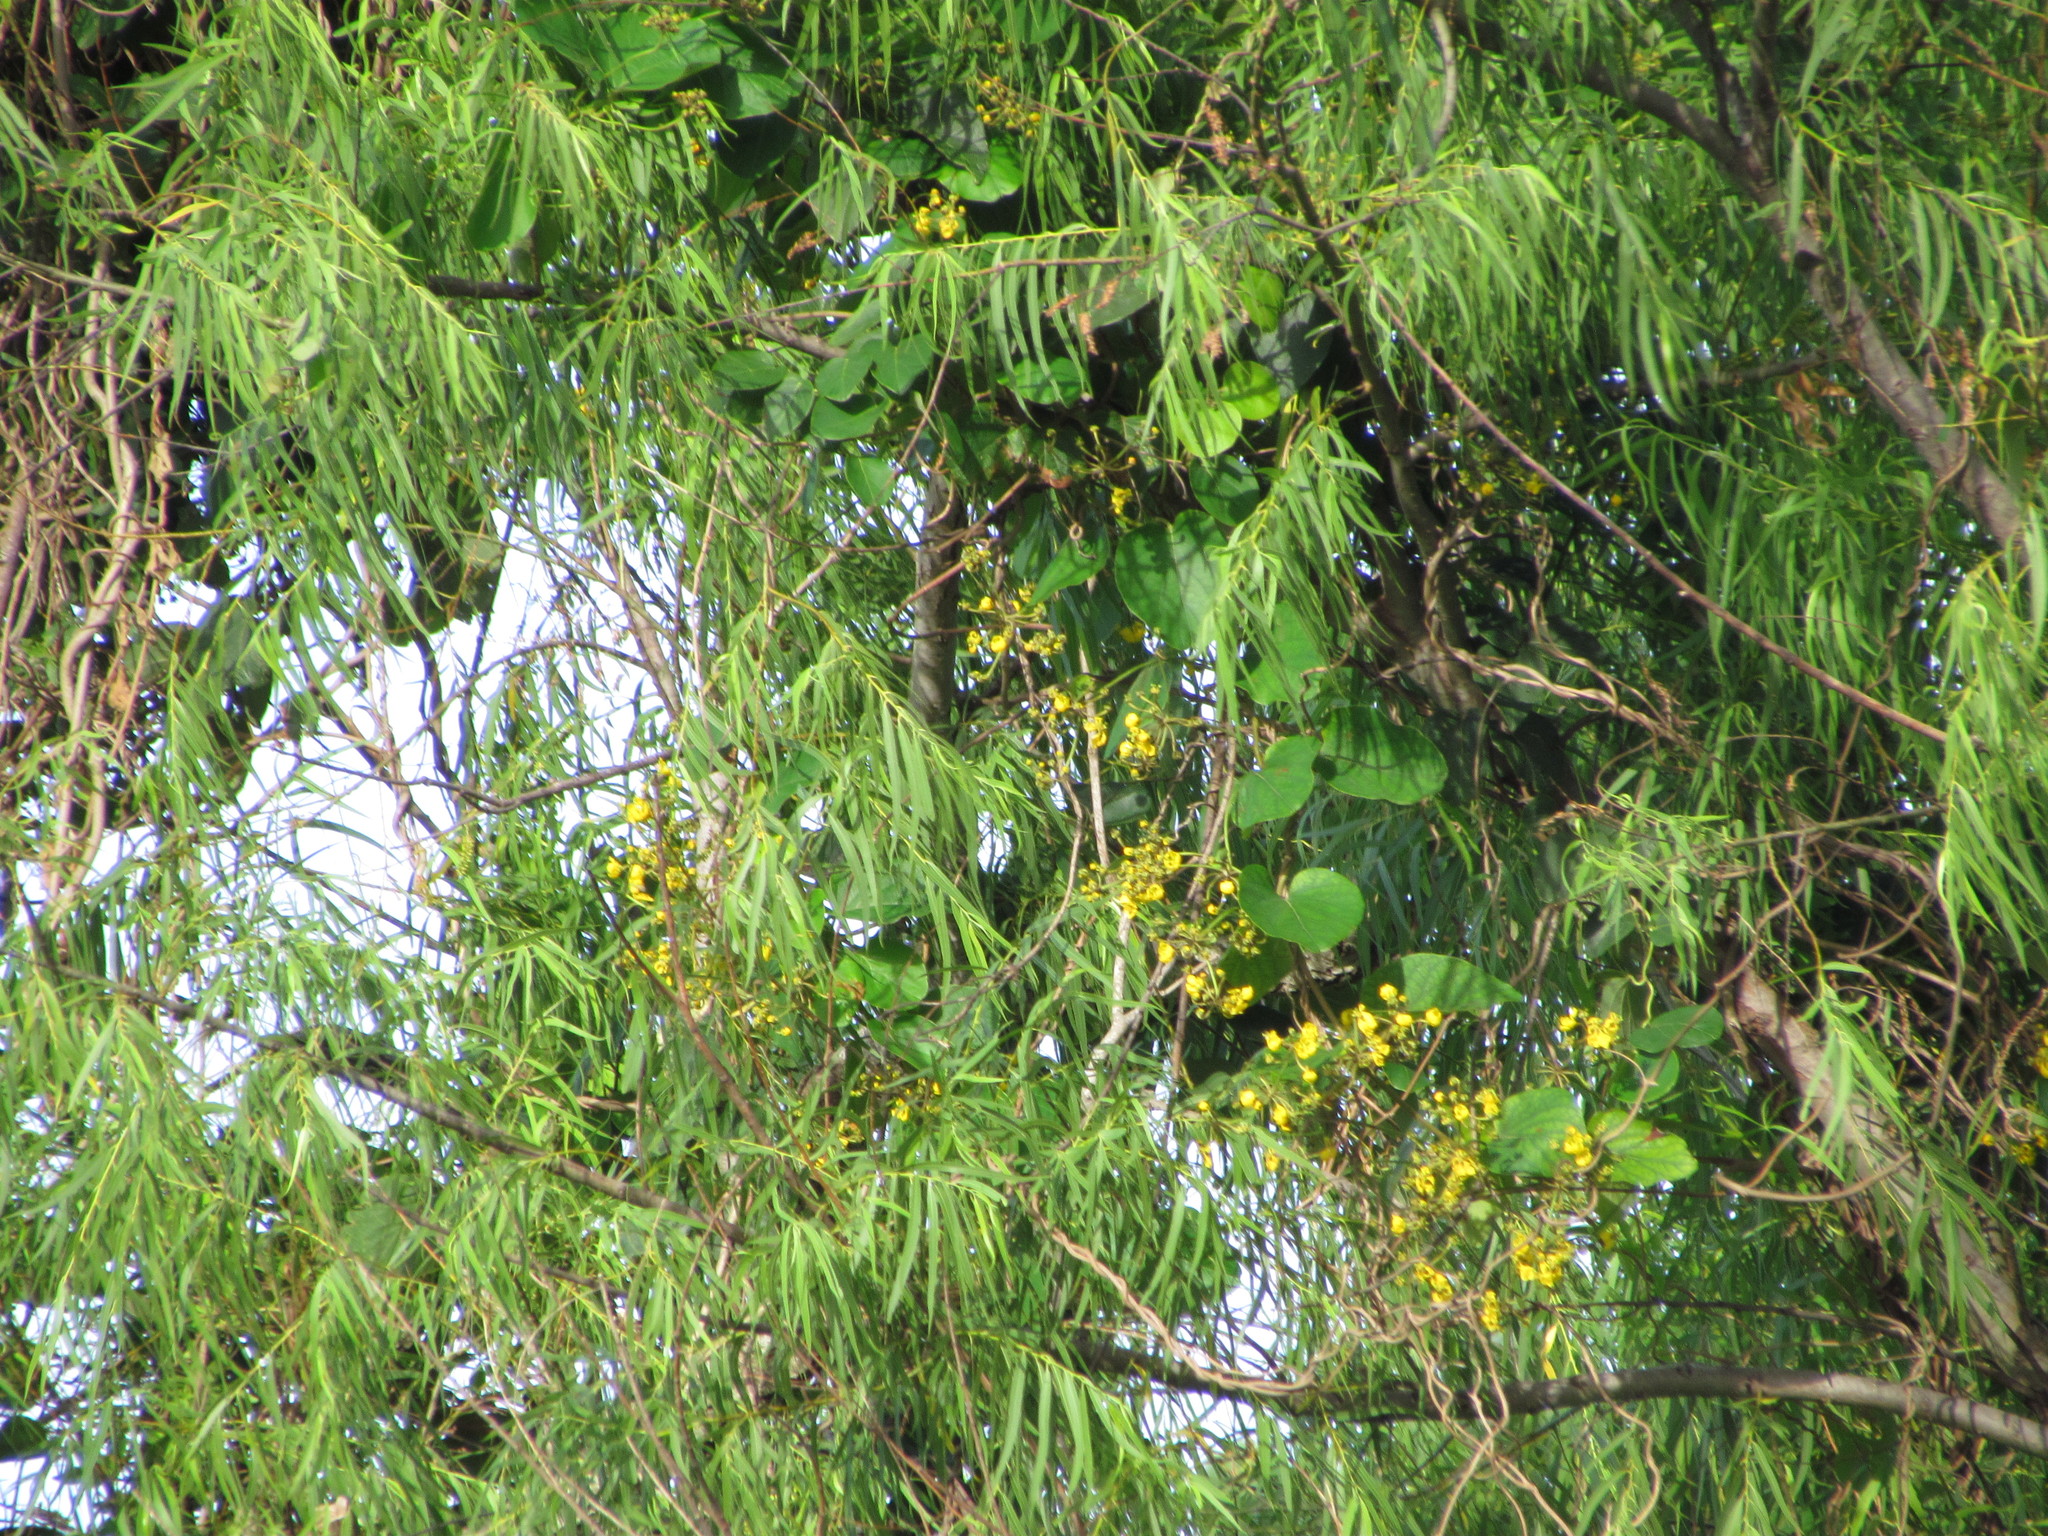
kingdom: Plantae
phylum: Tracheophyta
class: Magnoliopsida
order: Malpighiales
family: Malpighiaceae
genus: Stigmaphyllon
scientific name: Stigmaphyllon bonariense
